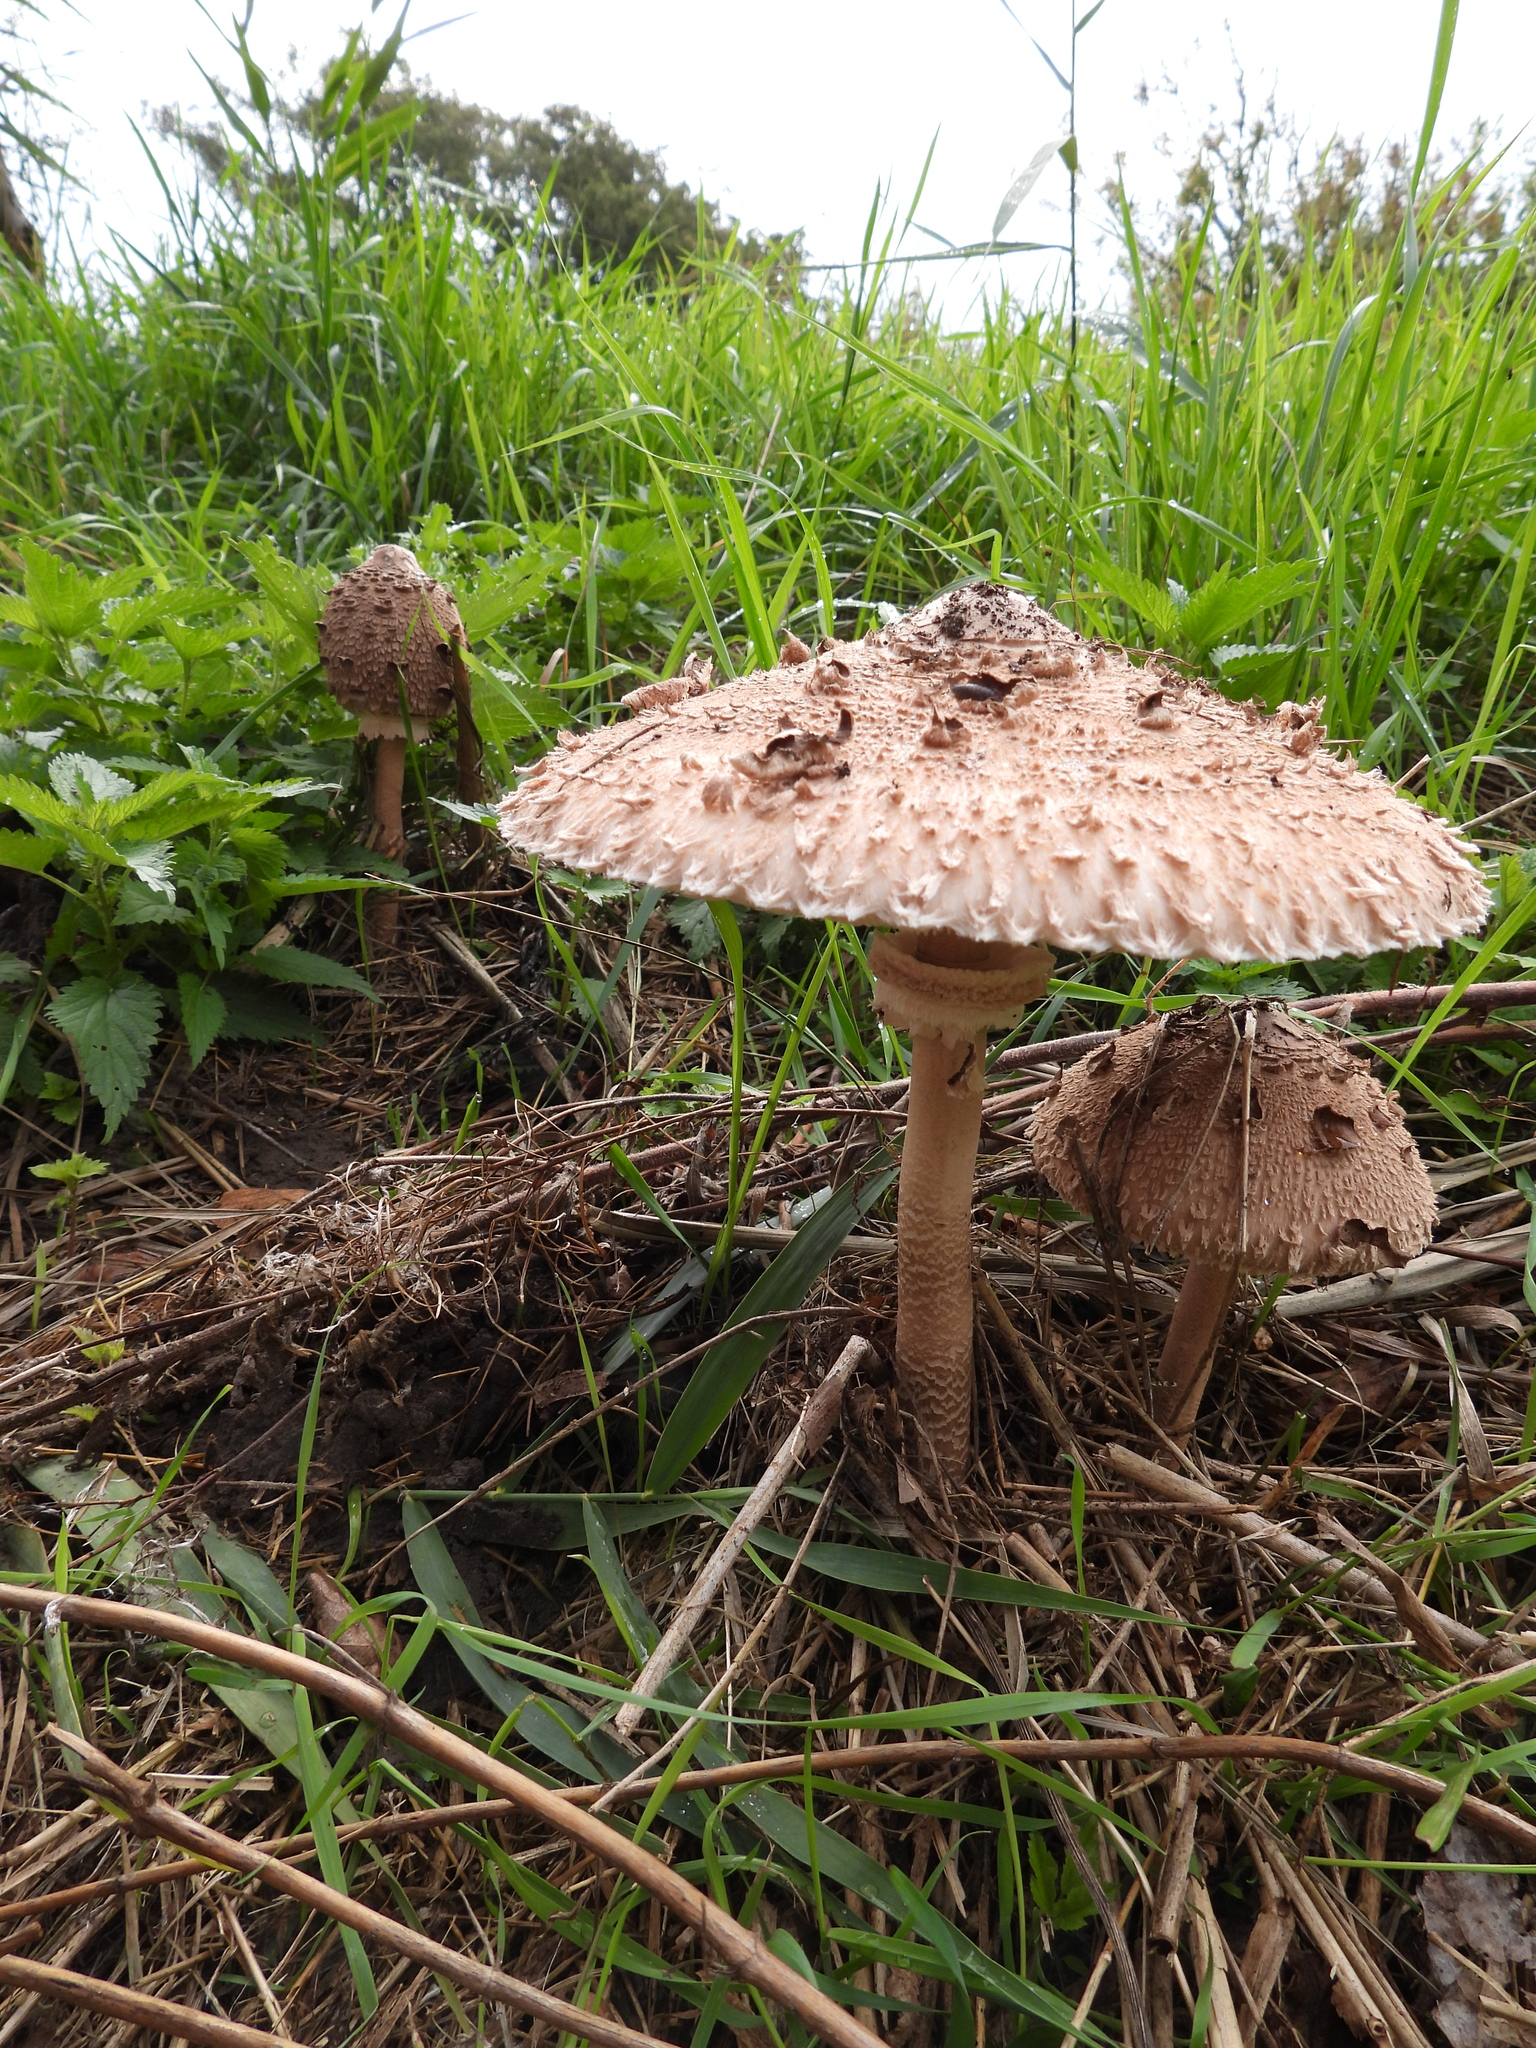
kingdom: Fungi
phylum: Basidiomycota
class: Agaricomycetes
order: Agaricales
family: Agaricaceae
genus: Macrolepiota
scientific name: Macrolepiota procera
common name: Parasol
